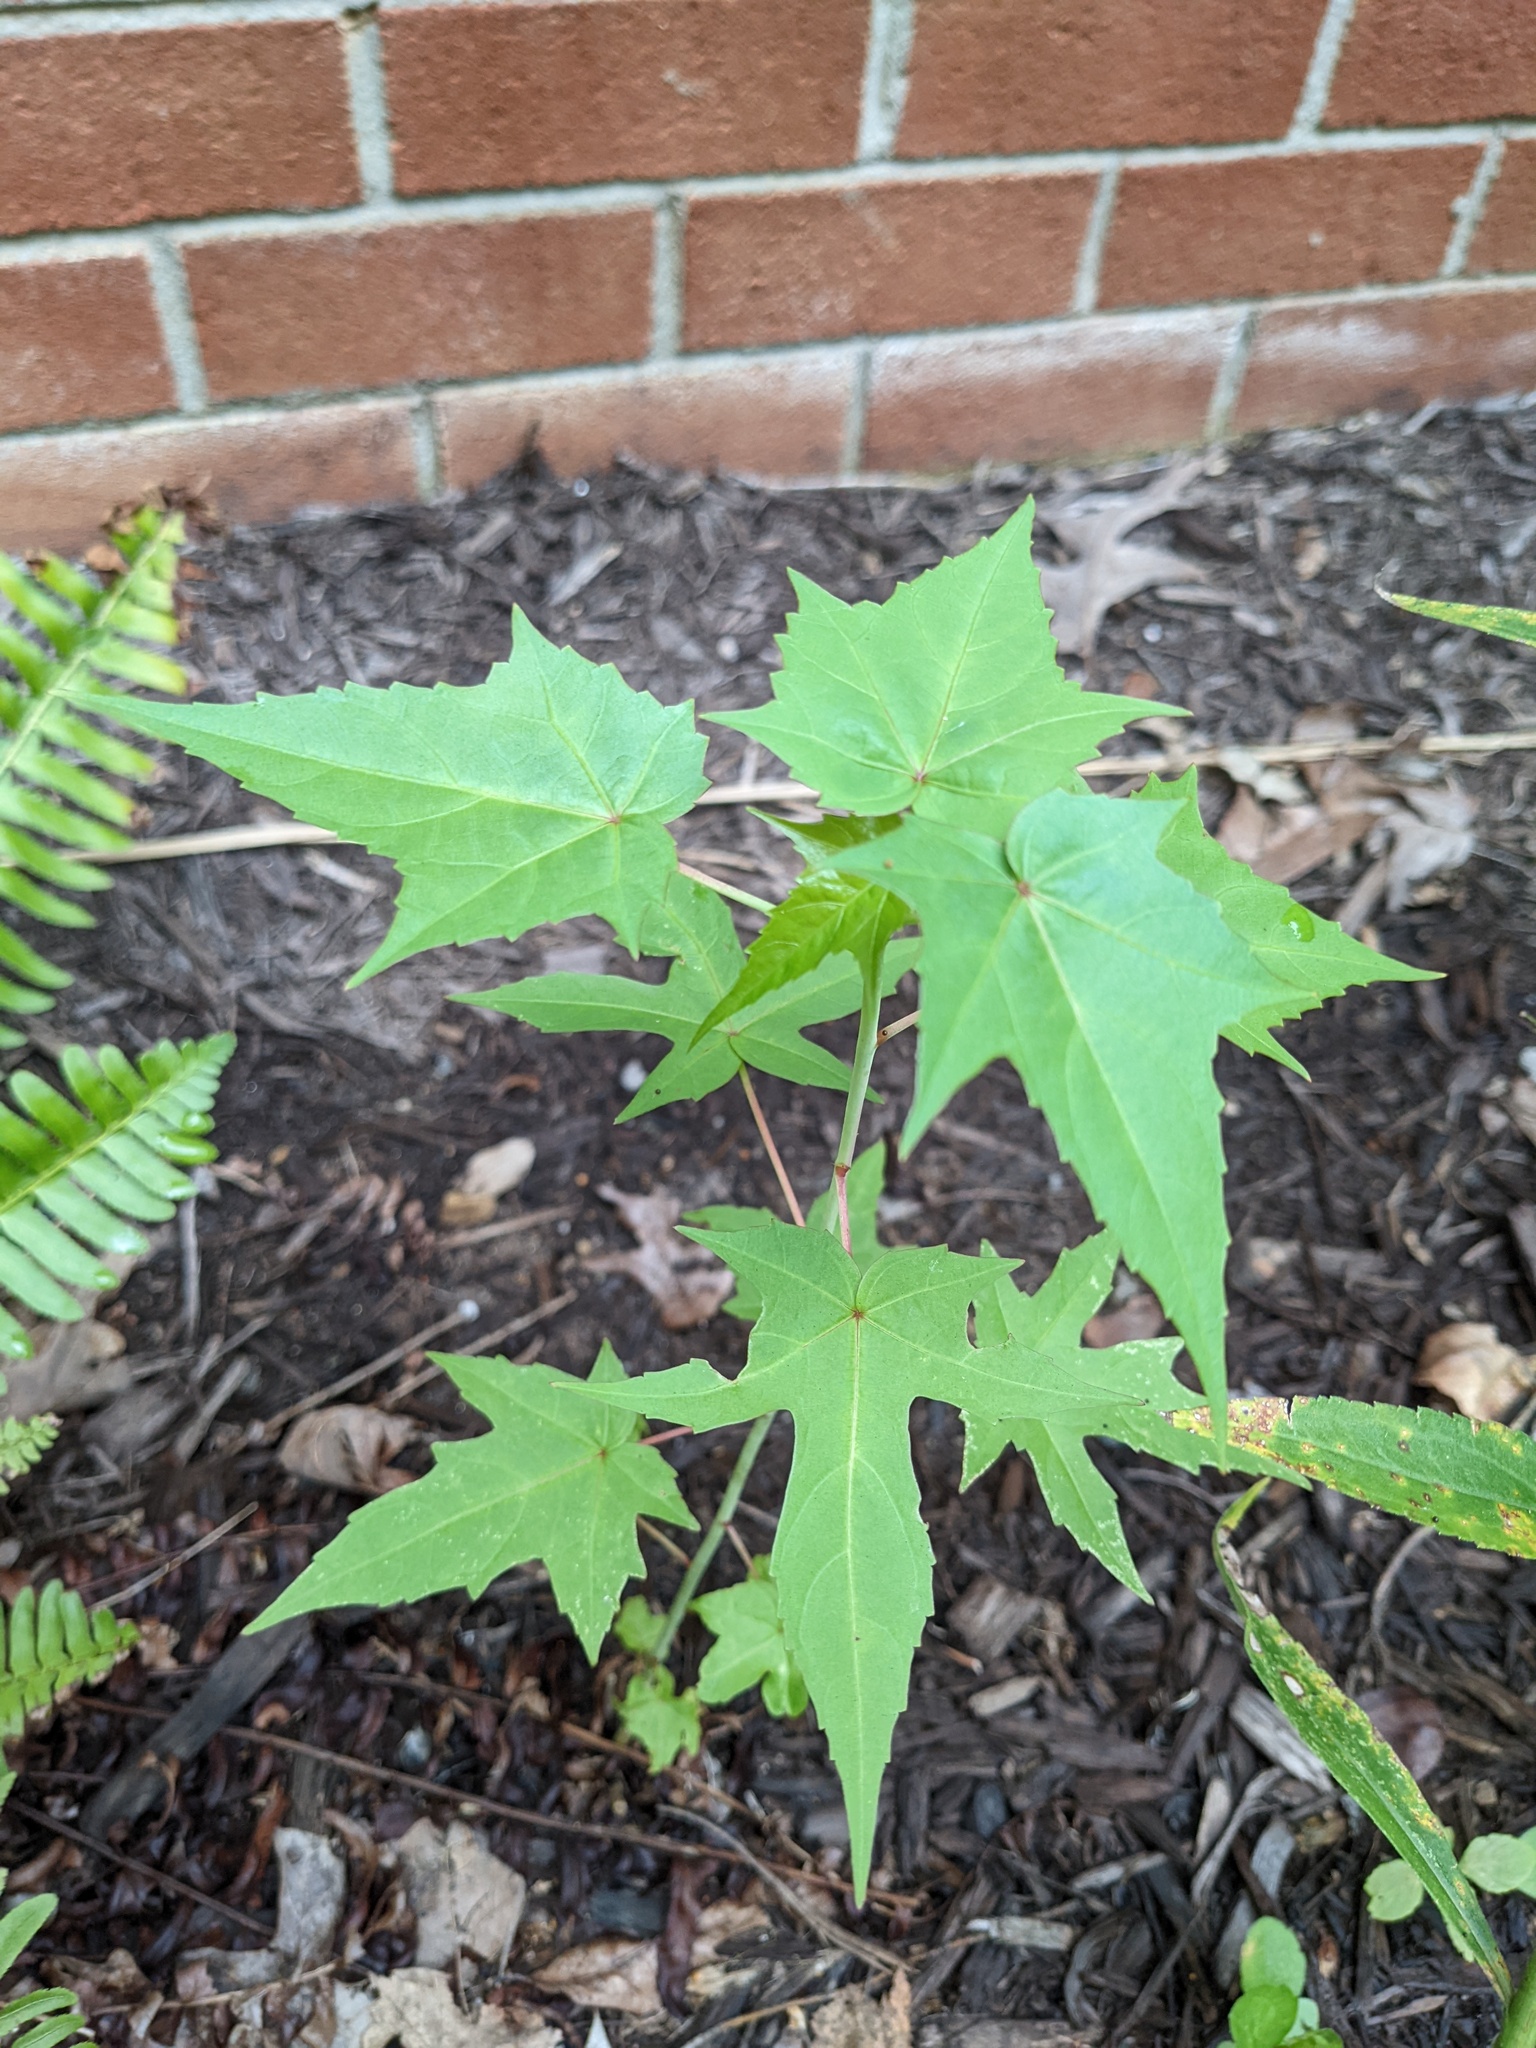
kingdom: Plantae
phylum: Tracheophyta
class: Magnoliopsida
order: Malvales
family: Malvaceae
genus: Hibiscus
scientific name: Hibiscus laevis
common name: Scarlet rose-mallow
